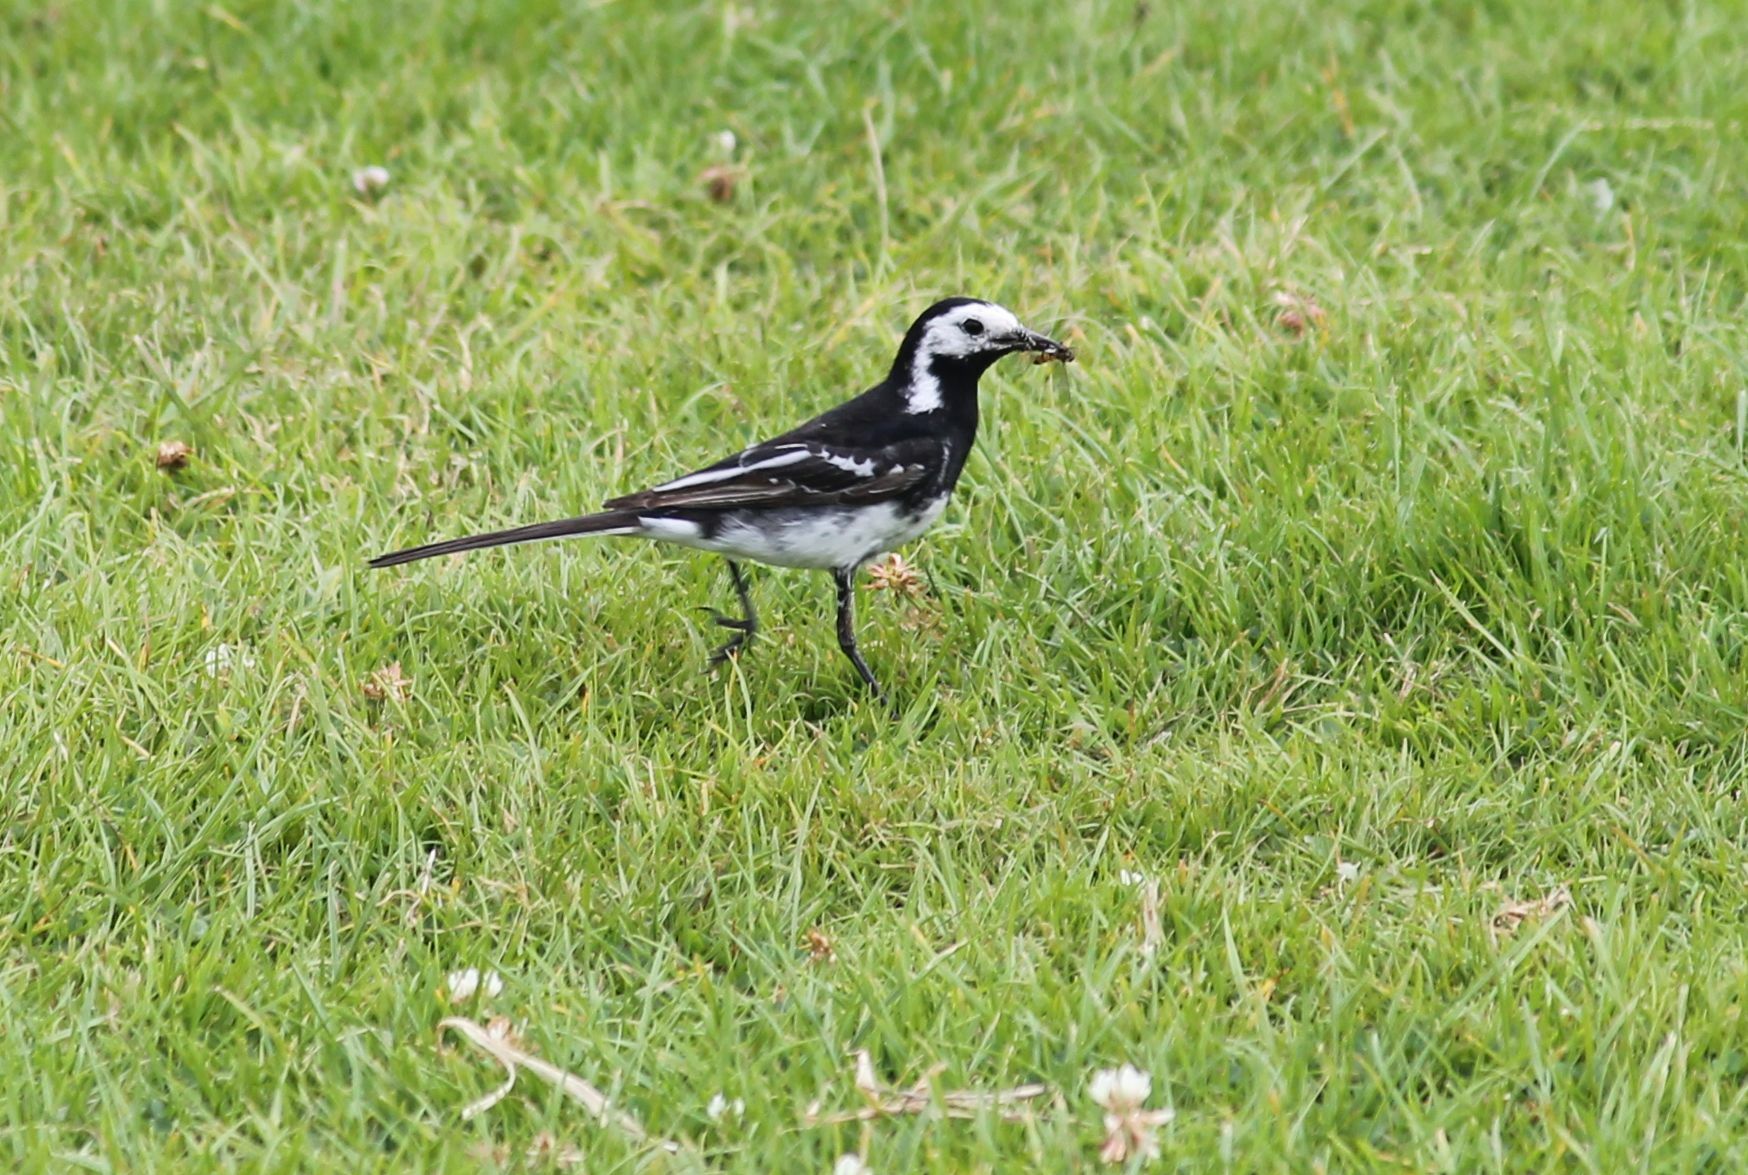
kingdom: Animalia
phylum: Chordata
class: Aves
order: Passeriformes
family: Motacillidae
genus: Motacilla
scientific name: Motacilla alba
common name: White wagtail
